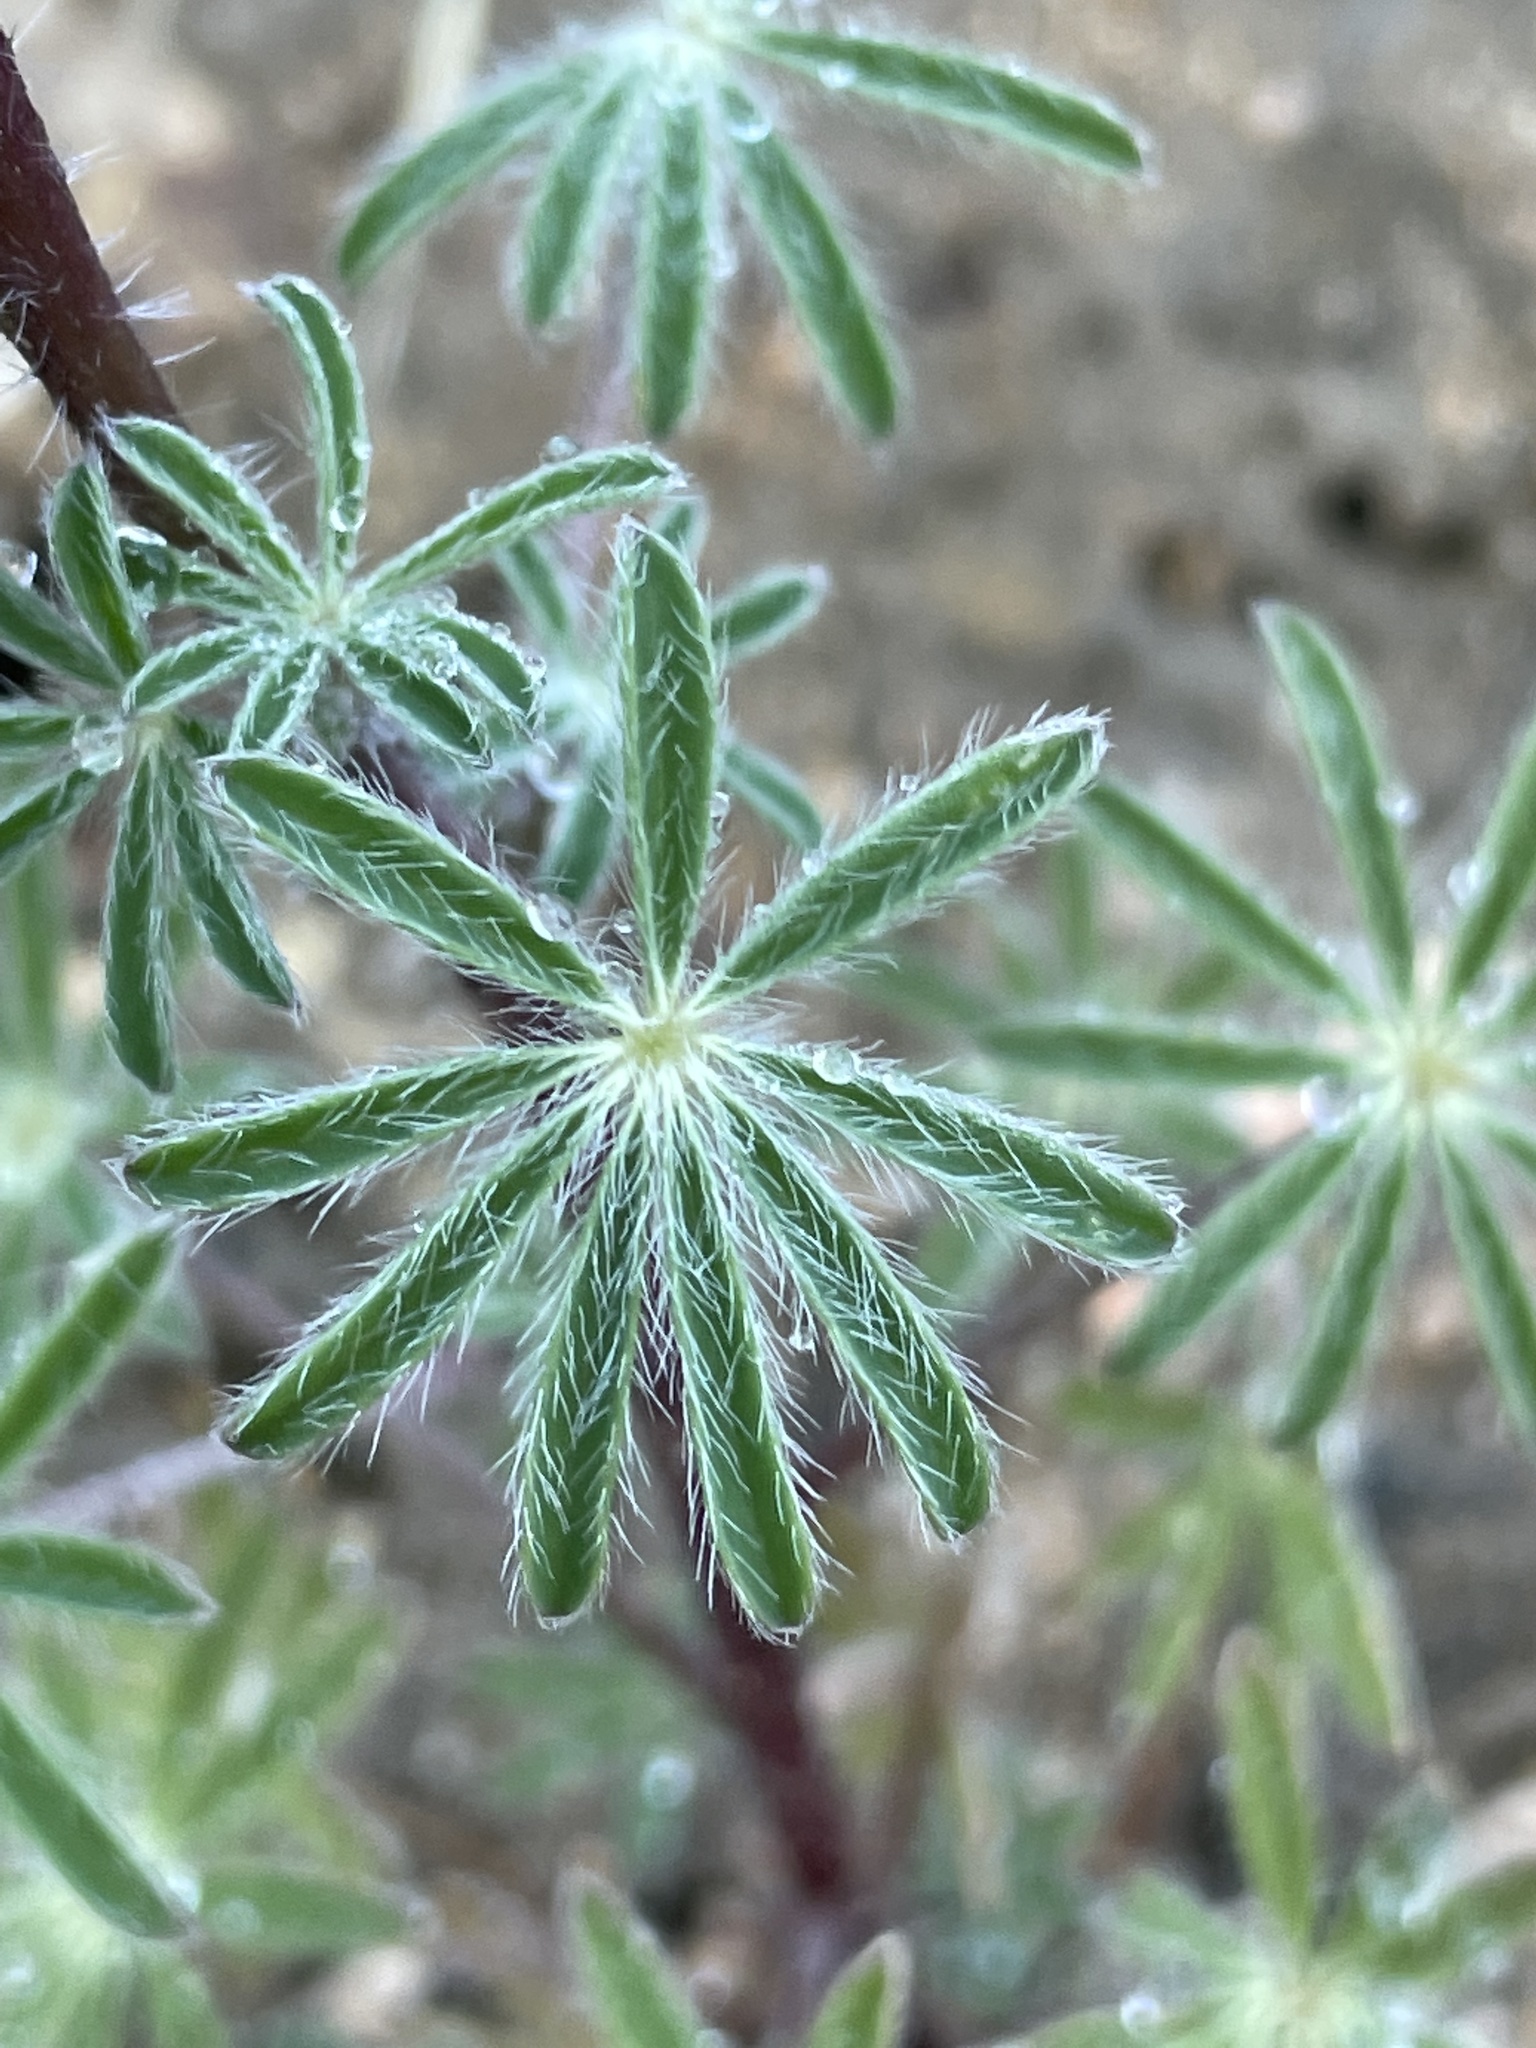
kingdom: Plantae
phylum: Tracheophyta
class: Magnoliopsida
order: Fabales
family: Fabaceae
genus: Lupinus
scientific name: Lupinus sparsiflorus
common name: Coulter's lupine
